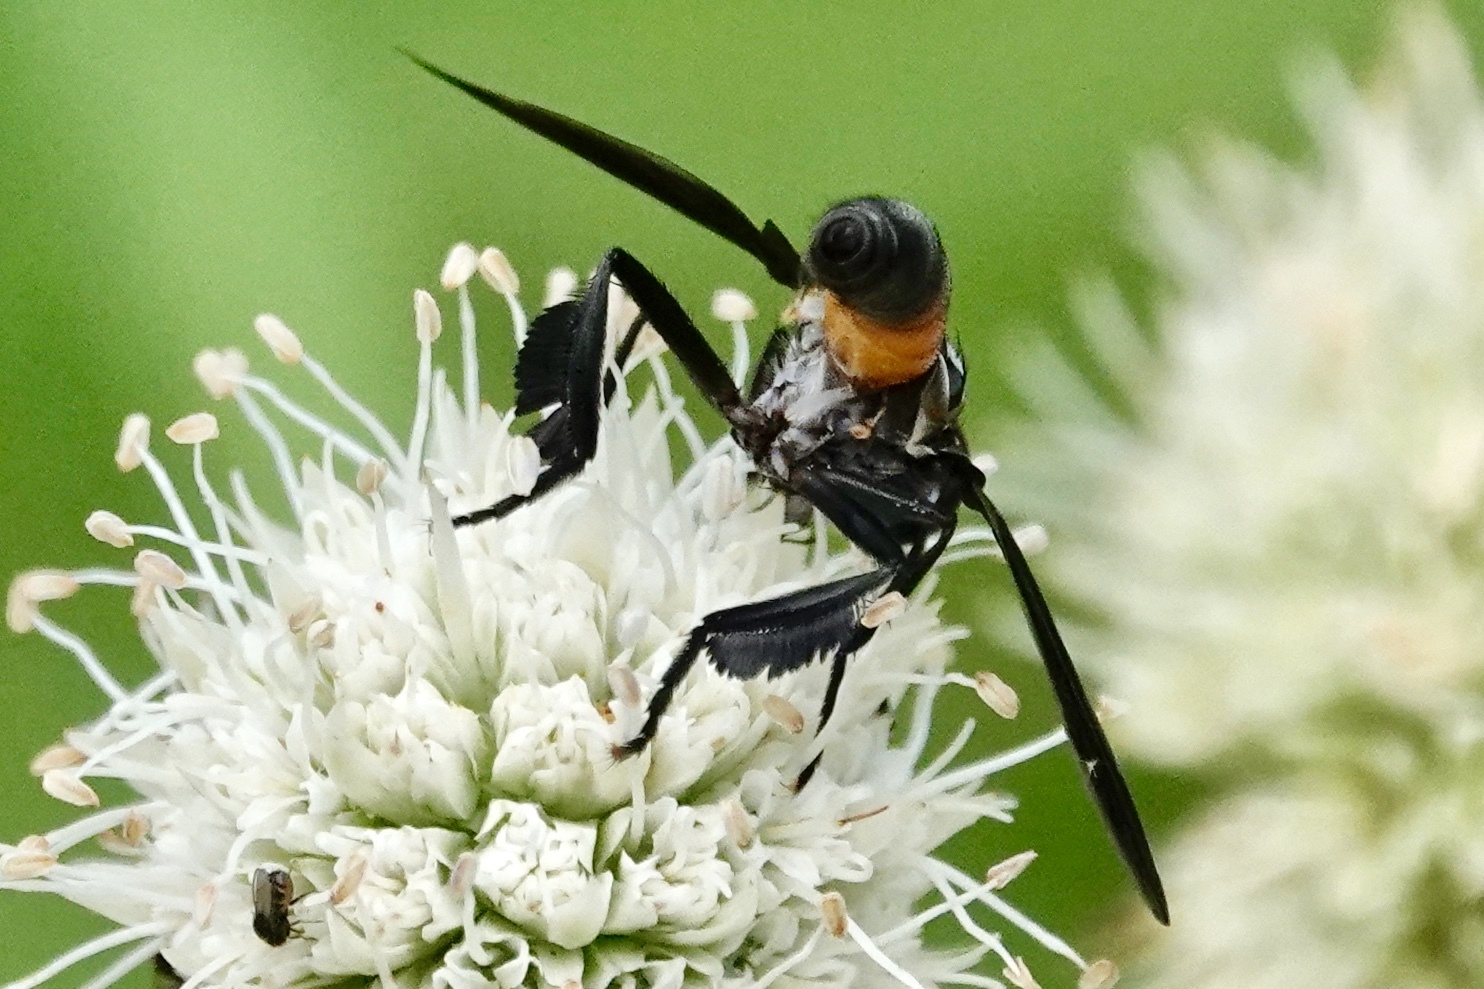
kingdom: Animalia
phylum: Arthropoda
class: Insecta
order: Diptera
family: Tachinidae
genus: Trichopoda
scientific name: Trichopoda pennipes
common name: Tachinid fly
